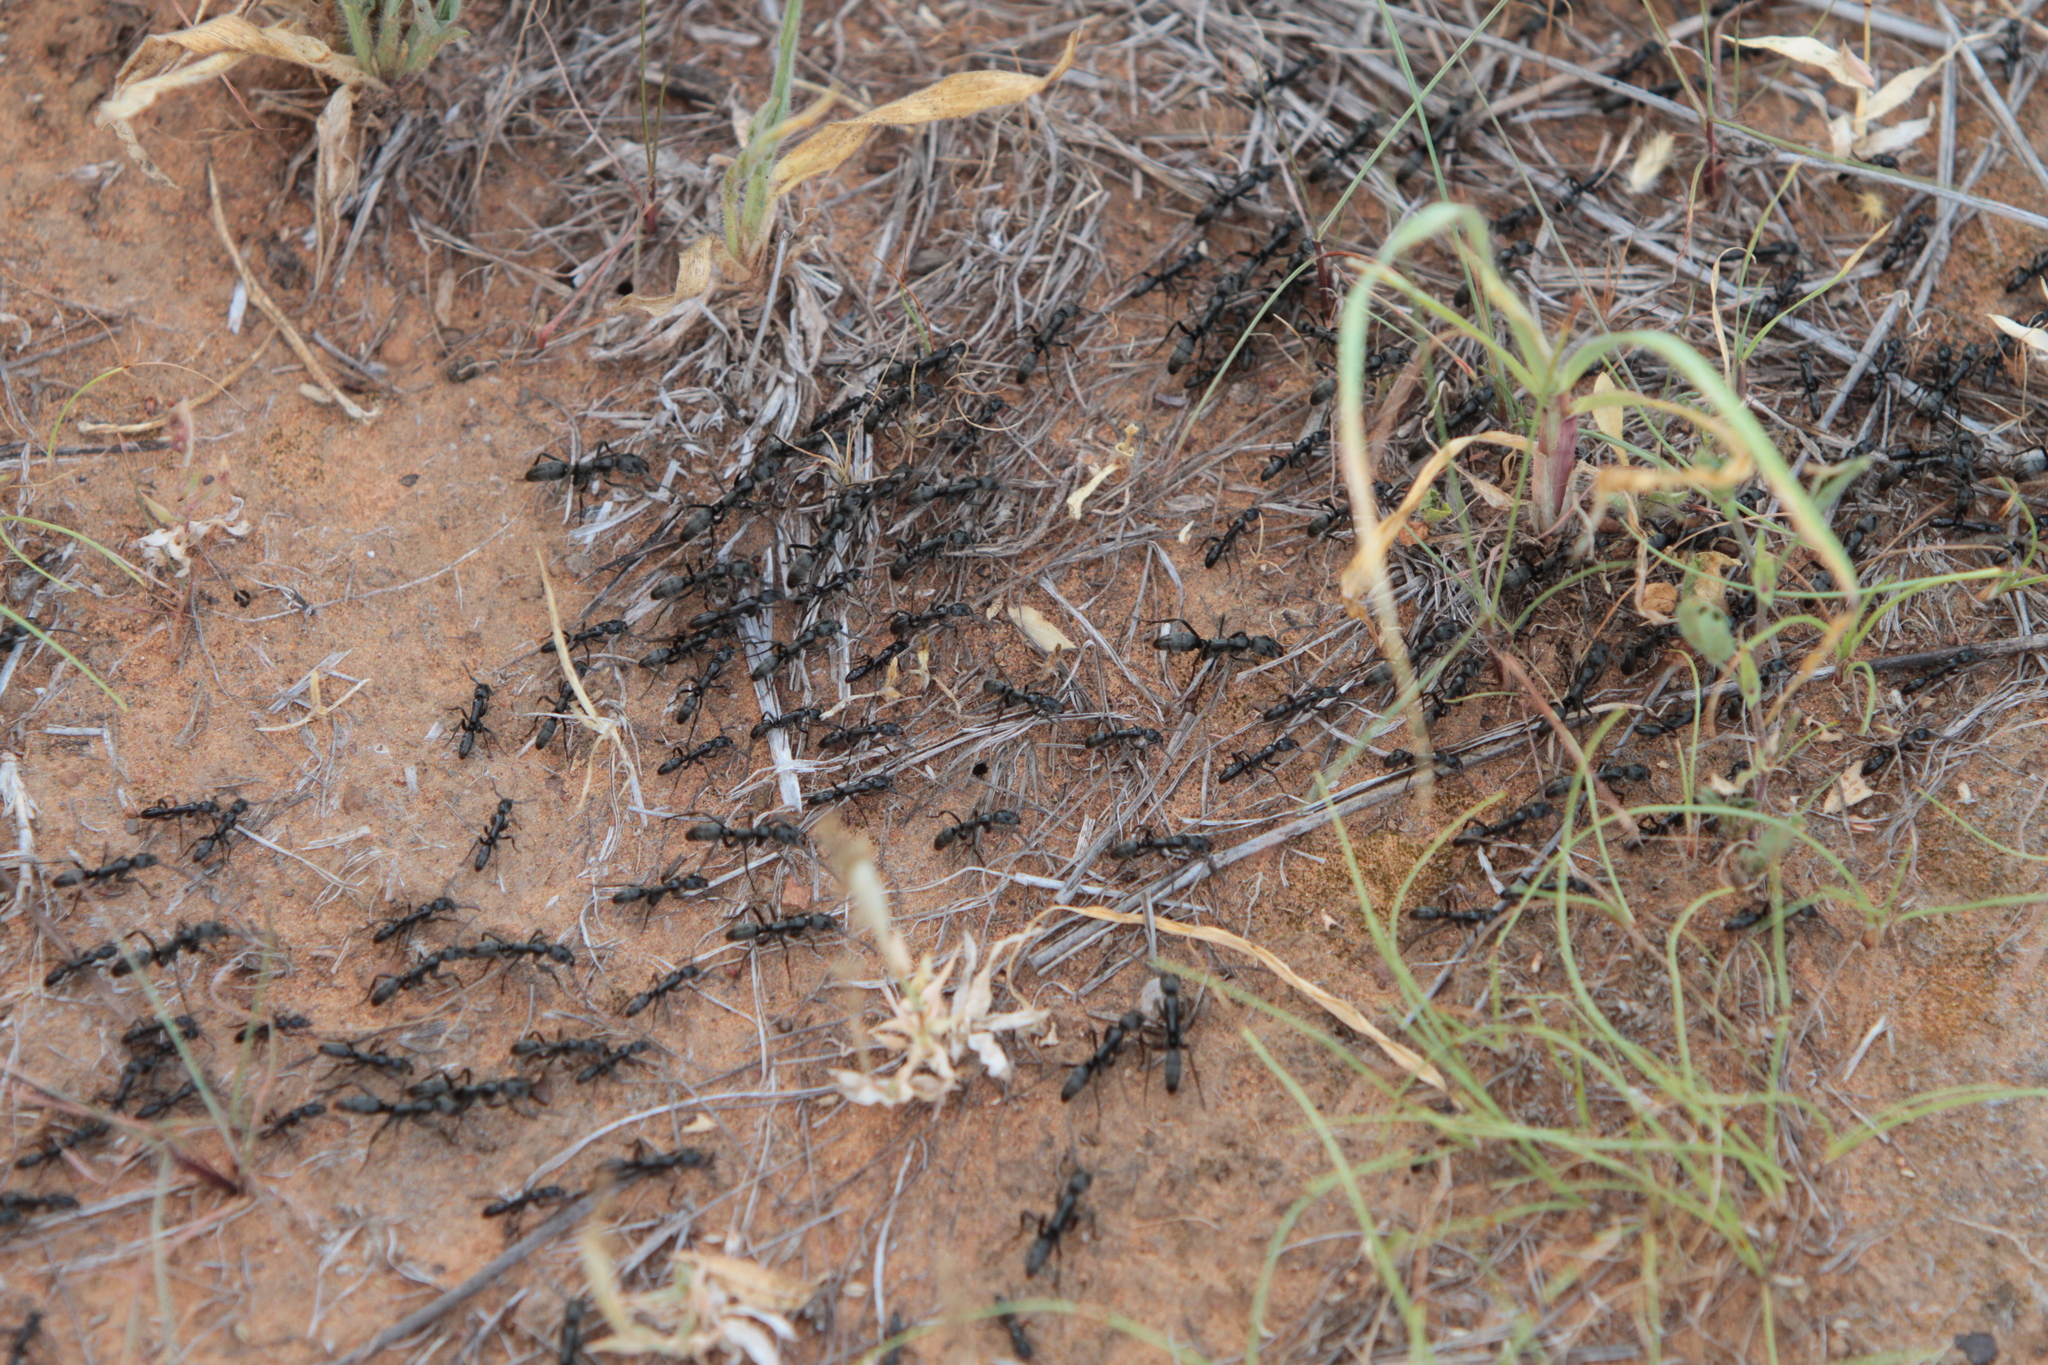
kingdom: Animalia
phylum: Arthropoda
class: Insecta
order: Hymenoptera
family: Formicidae
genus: Megaponera
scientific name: Megaponera analis
